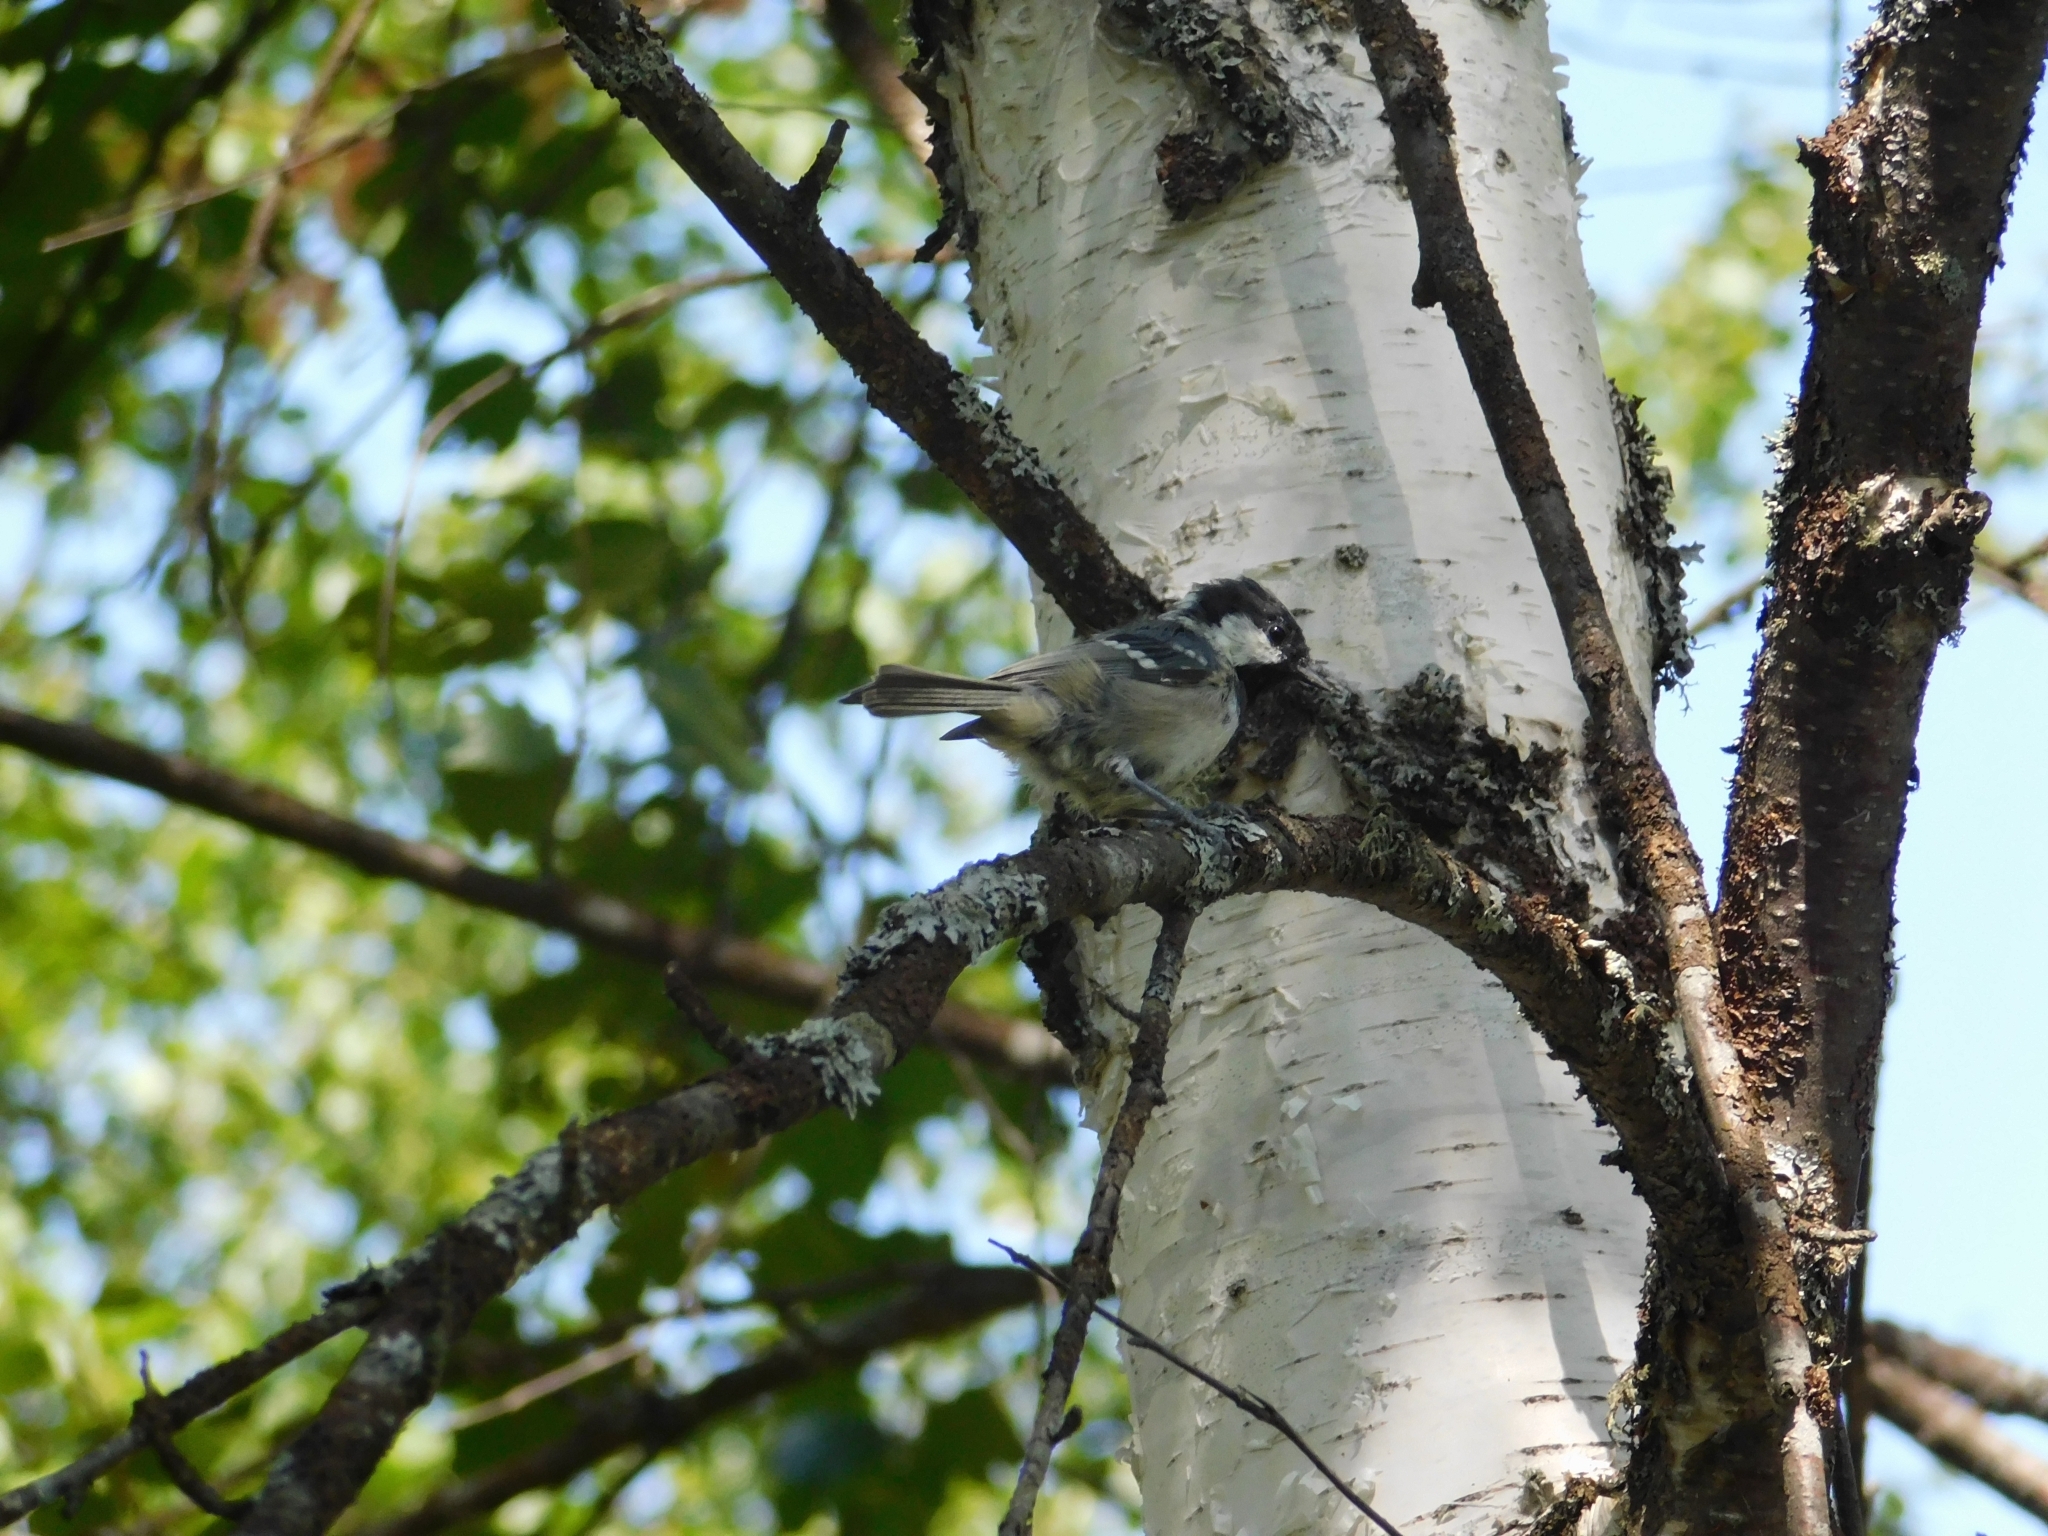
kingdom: Animalia
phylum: Chordata
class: Aves
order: Passeriformes
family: Paridae
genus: Periparus
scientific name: Periparus ater
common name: Coal tit
